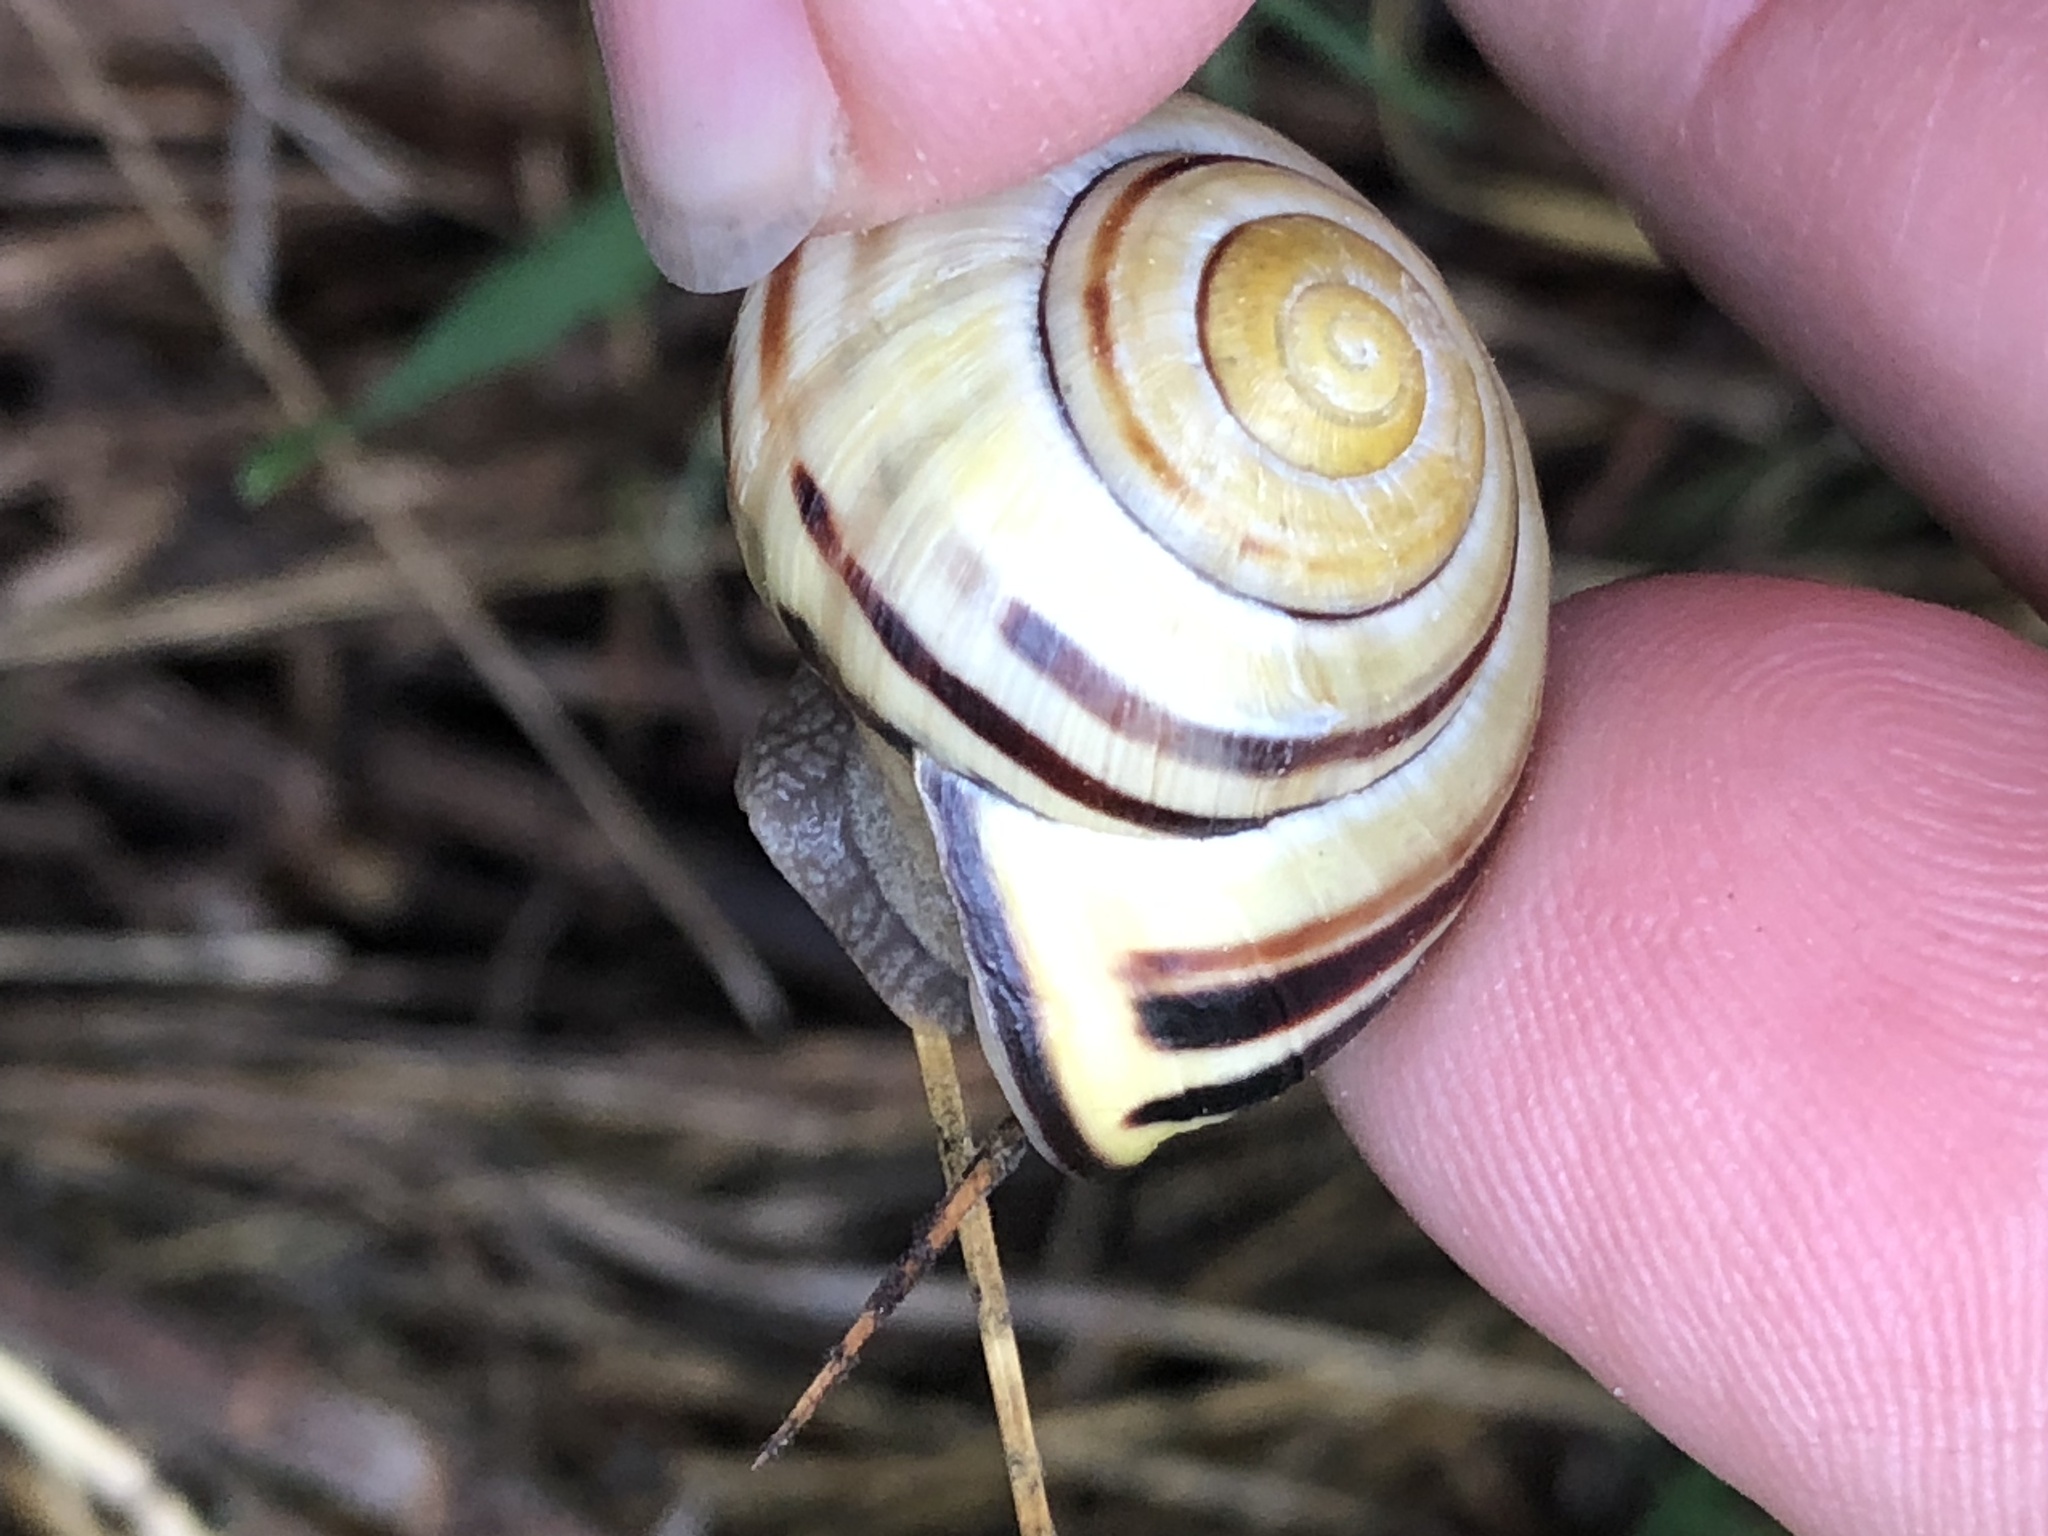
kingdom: Animalia
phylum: Mollusca
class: Gastropoda
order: Stylommatophora
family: Helicidae
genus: Cepaea
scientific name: Cepaea nemoralis
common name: Grovesnail
